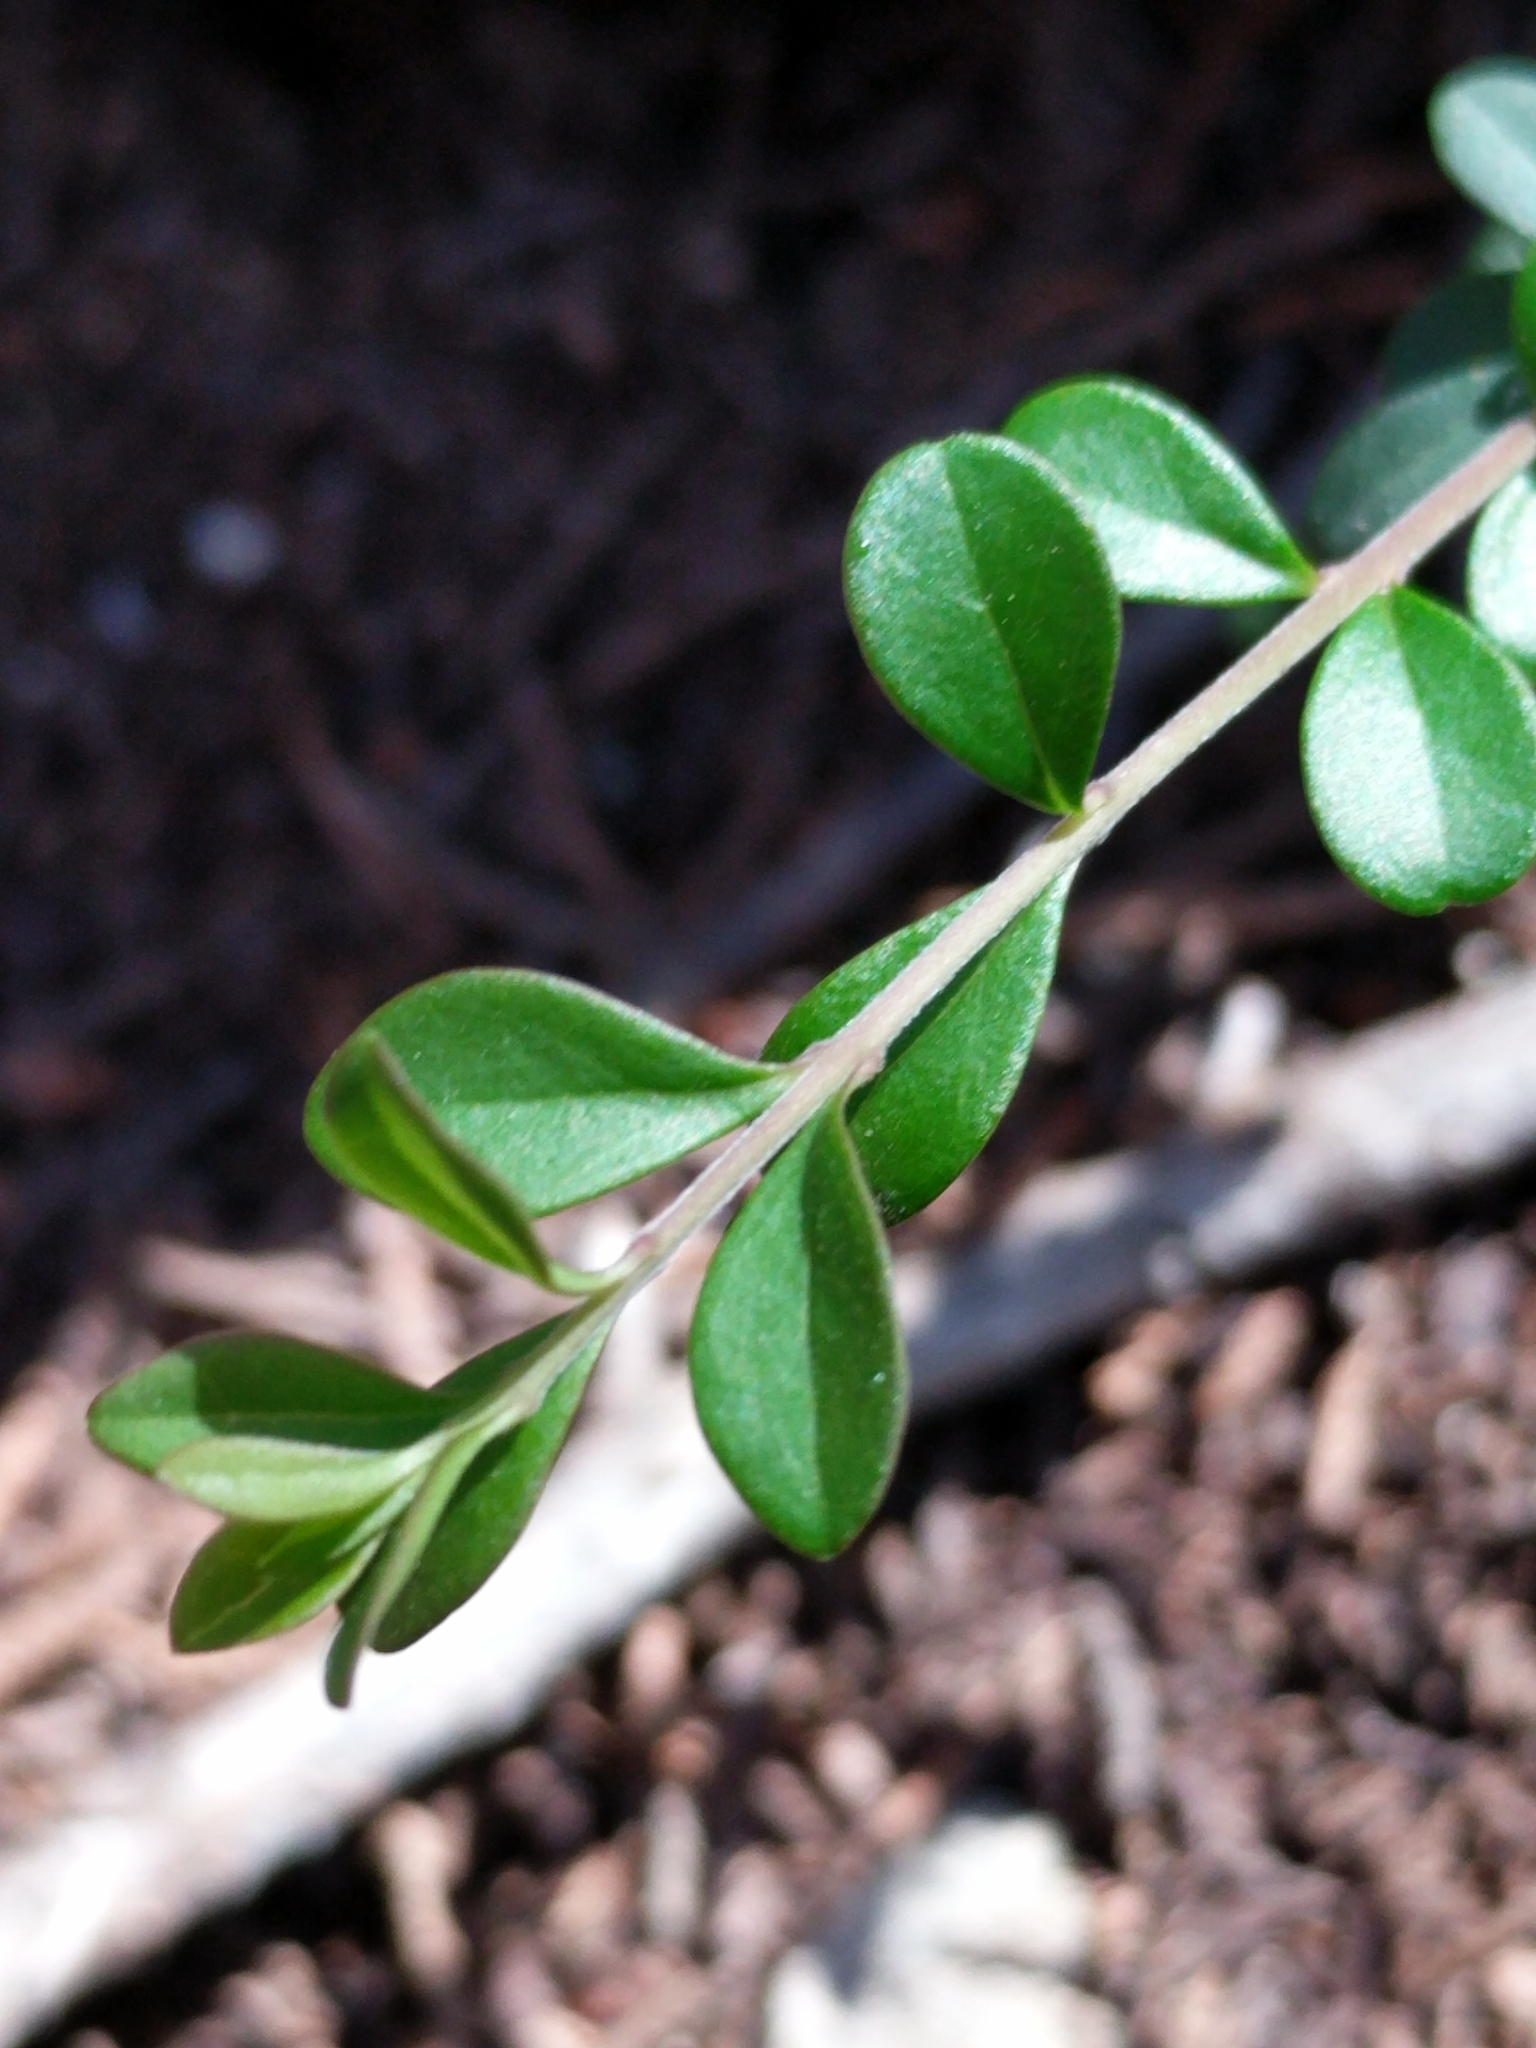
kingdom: Plantae
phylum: Tracheophyta
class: Magnoliopsida
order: Lamiales
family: Oleaceae
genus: Ligustrum
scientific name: Ligustrum quihoui
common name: Waxyleaf privet
